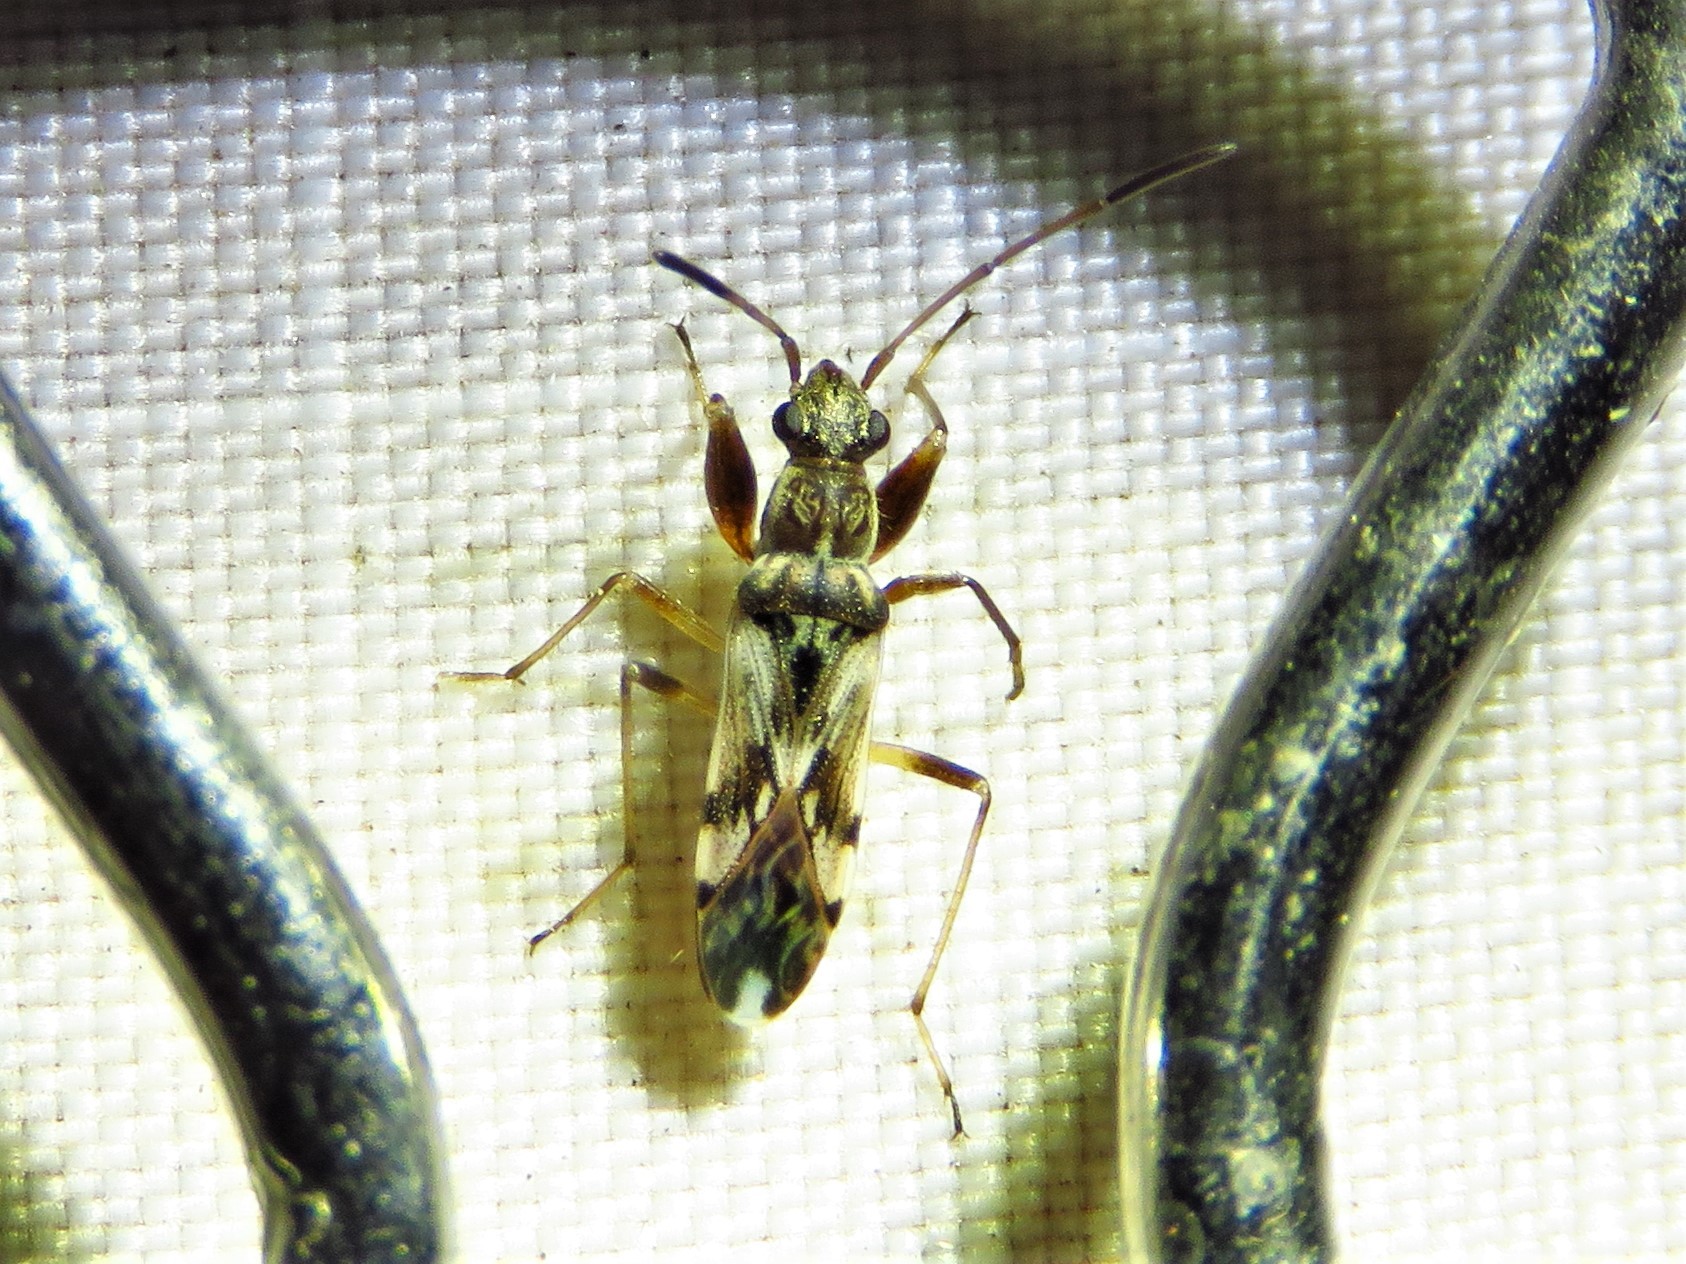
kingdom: Animalia
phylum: Arthropoda
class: Insecta
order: Hemiptera
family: Rhyparochromidae
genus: Neopamera
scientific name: Neopamera bilobata
